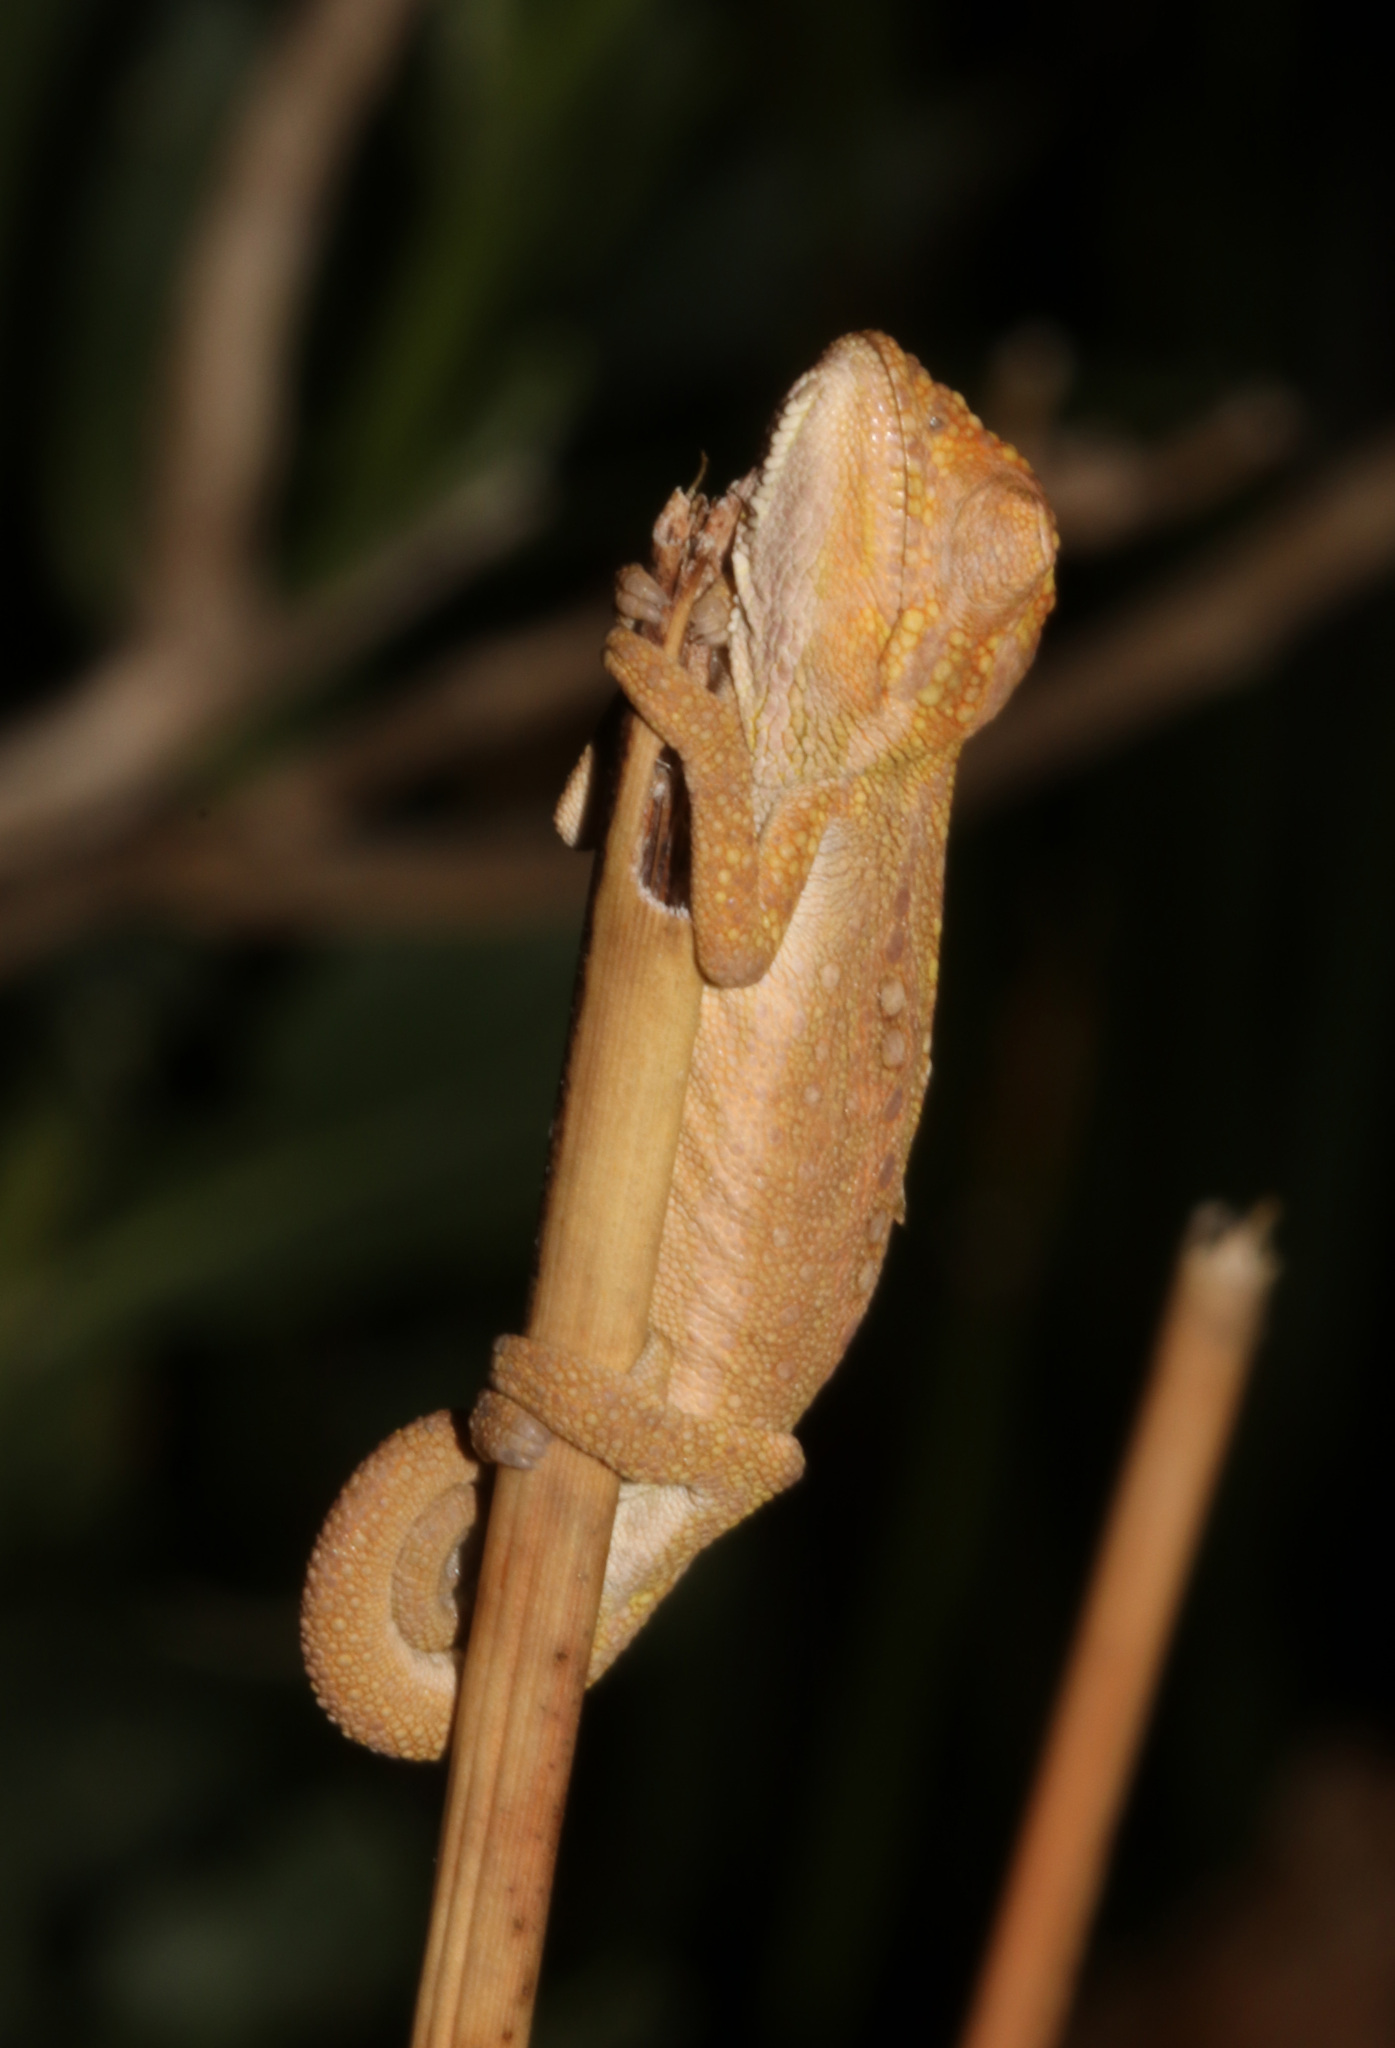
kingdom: Animalia
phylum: Chordata
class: Squamata
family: Chamaeleonidae
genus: Bradypodion
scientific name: Bradypodion pumilum
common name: Cape dwarf chameleon
